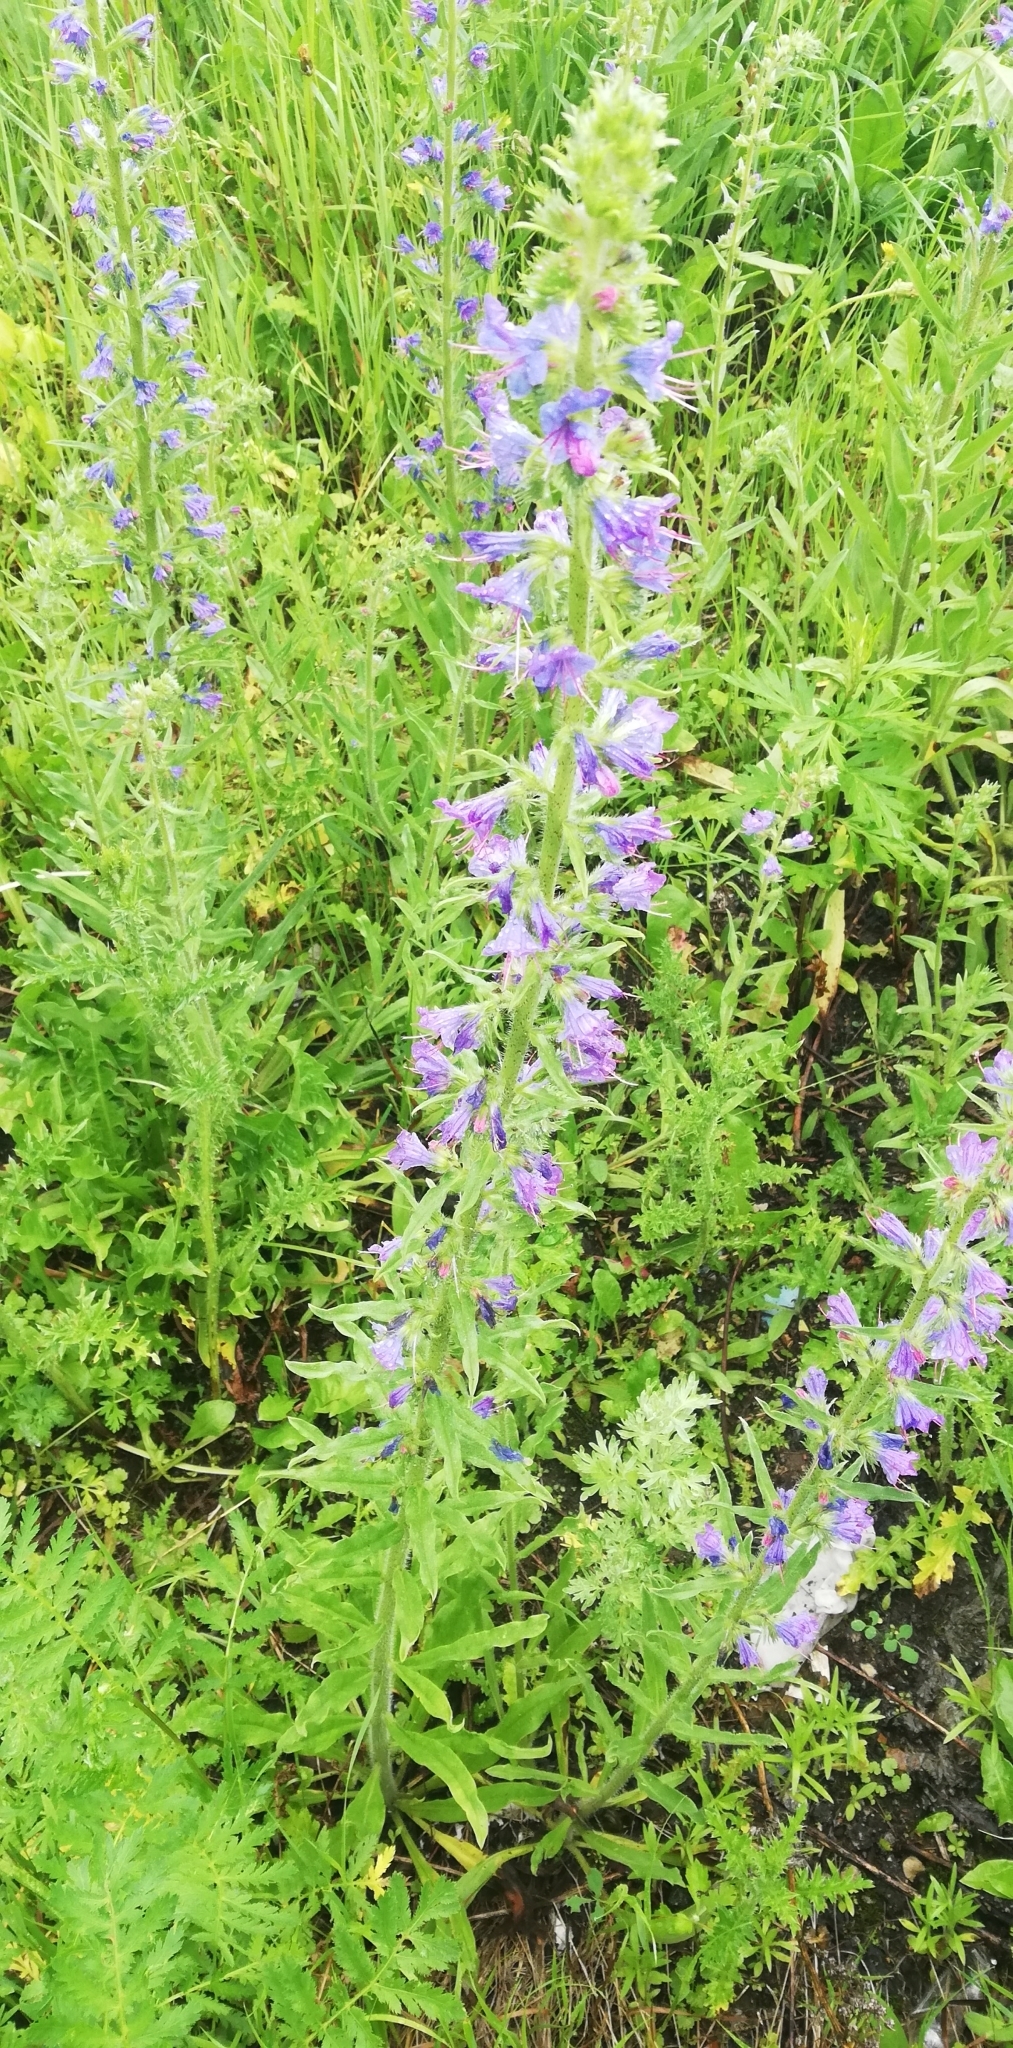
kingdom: Plantae
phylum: Tracheophyta
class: Magnoliopsida
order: Boraginales
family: Boraginaceae
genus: Echium
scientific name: Echium vulgare
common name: Common viper's bugloss
